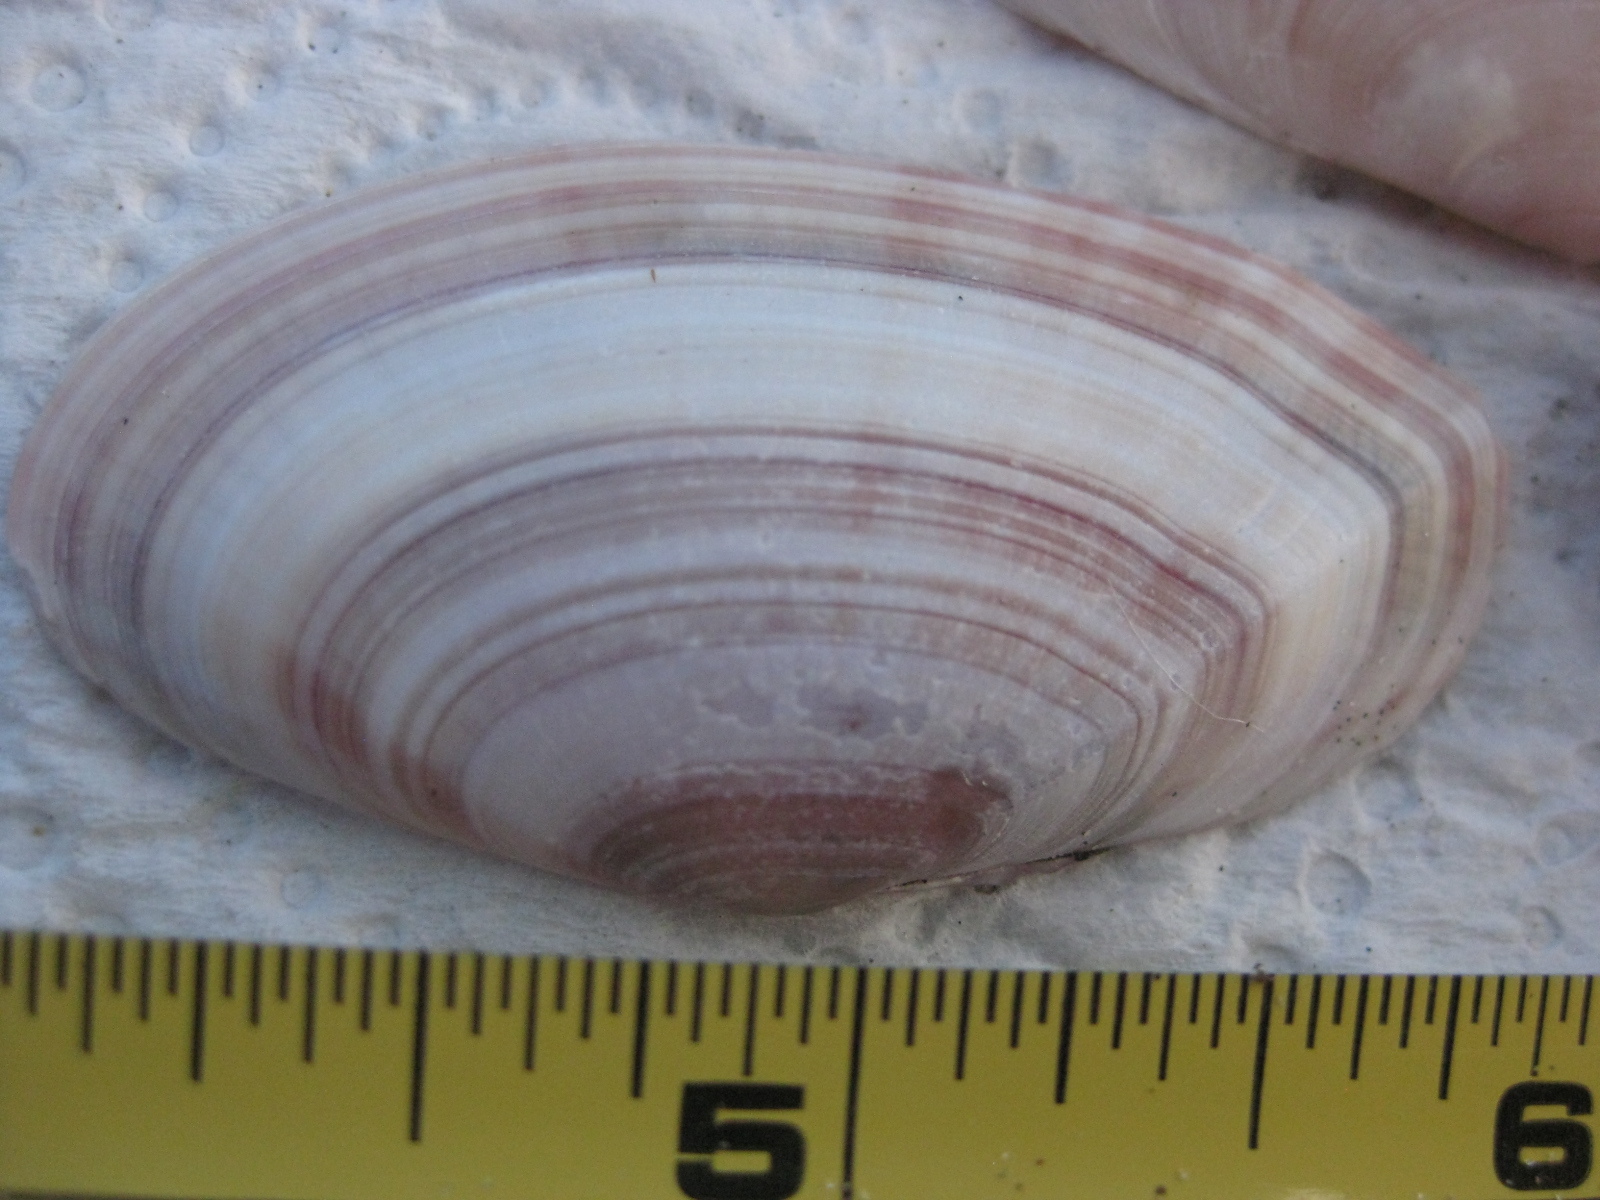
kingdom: Animalia
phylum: Mollusca
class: Bivalvia
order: Cardiida
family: Psammobiidae
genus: Gari
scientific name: Gari convexa
